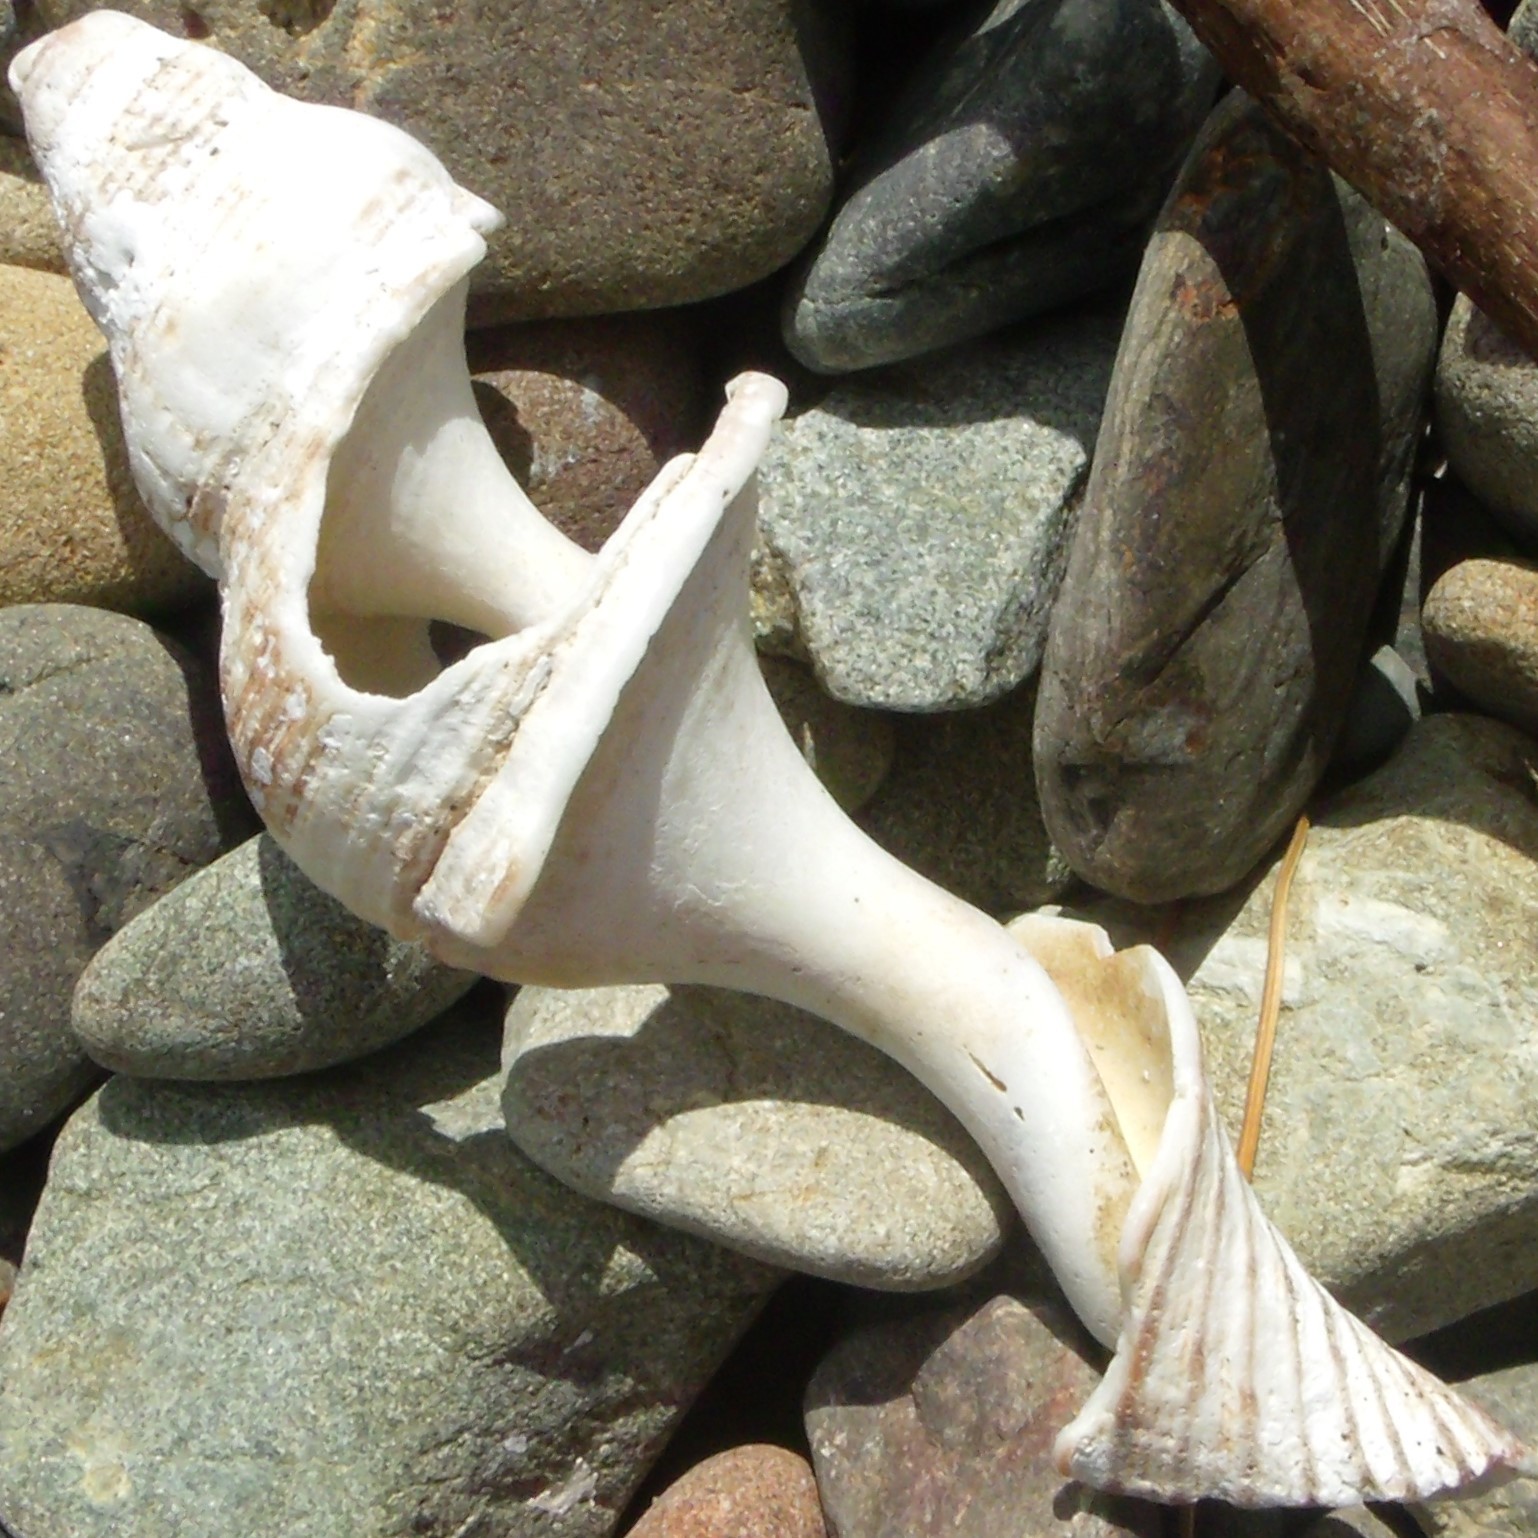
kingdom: Animalia
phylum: Mollusca
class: Gastropoda
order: Neogastropoda
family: Austrosiphonidae
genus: Penion
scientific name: Penion sulcatus
